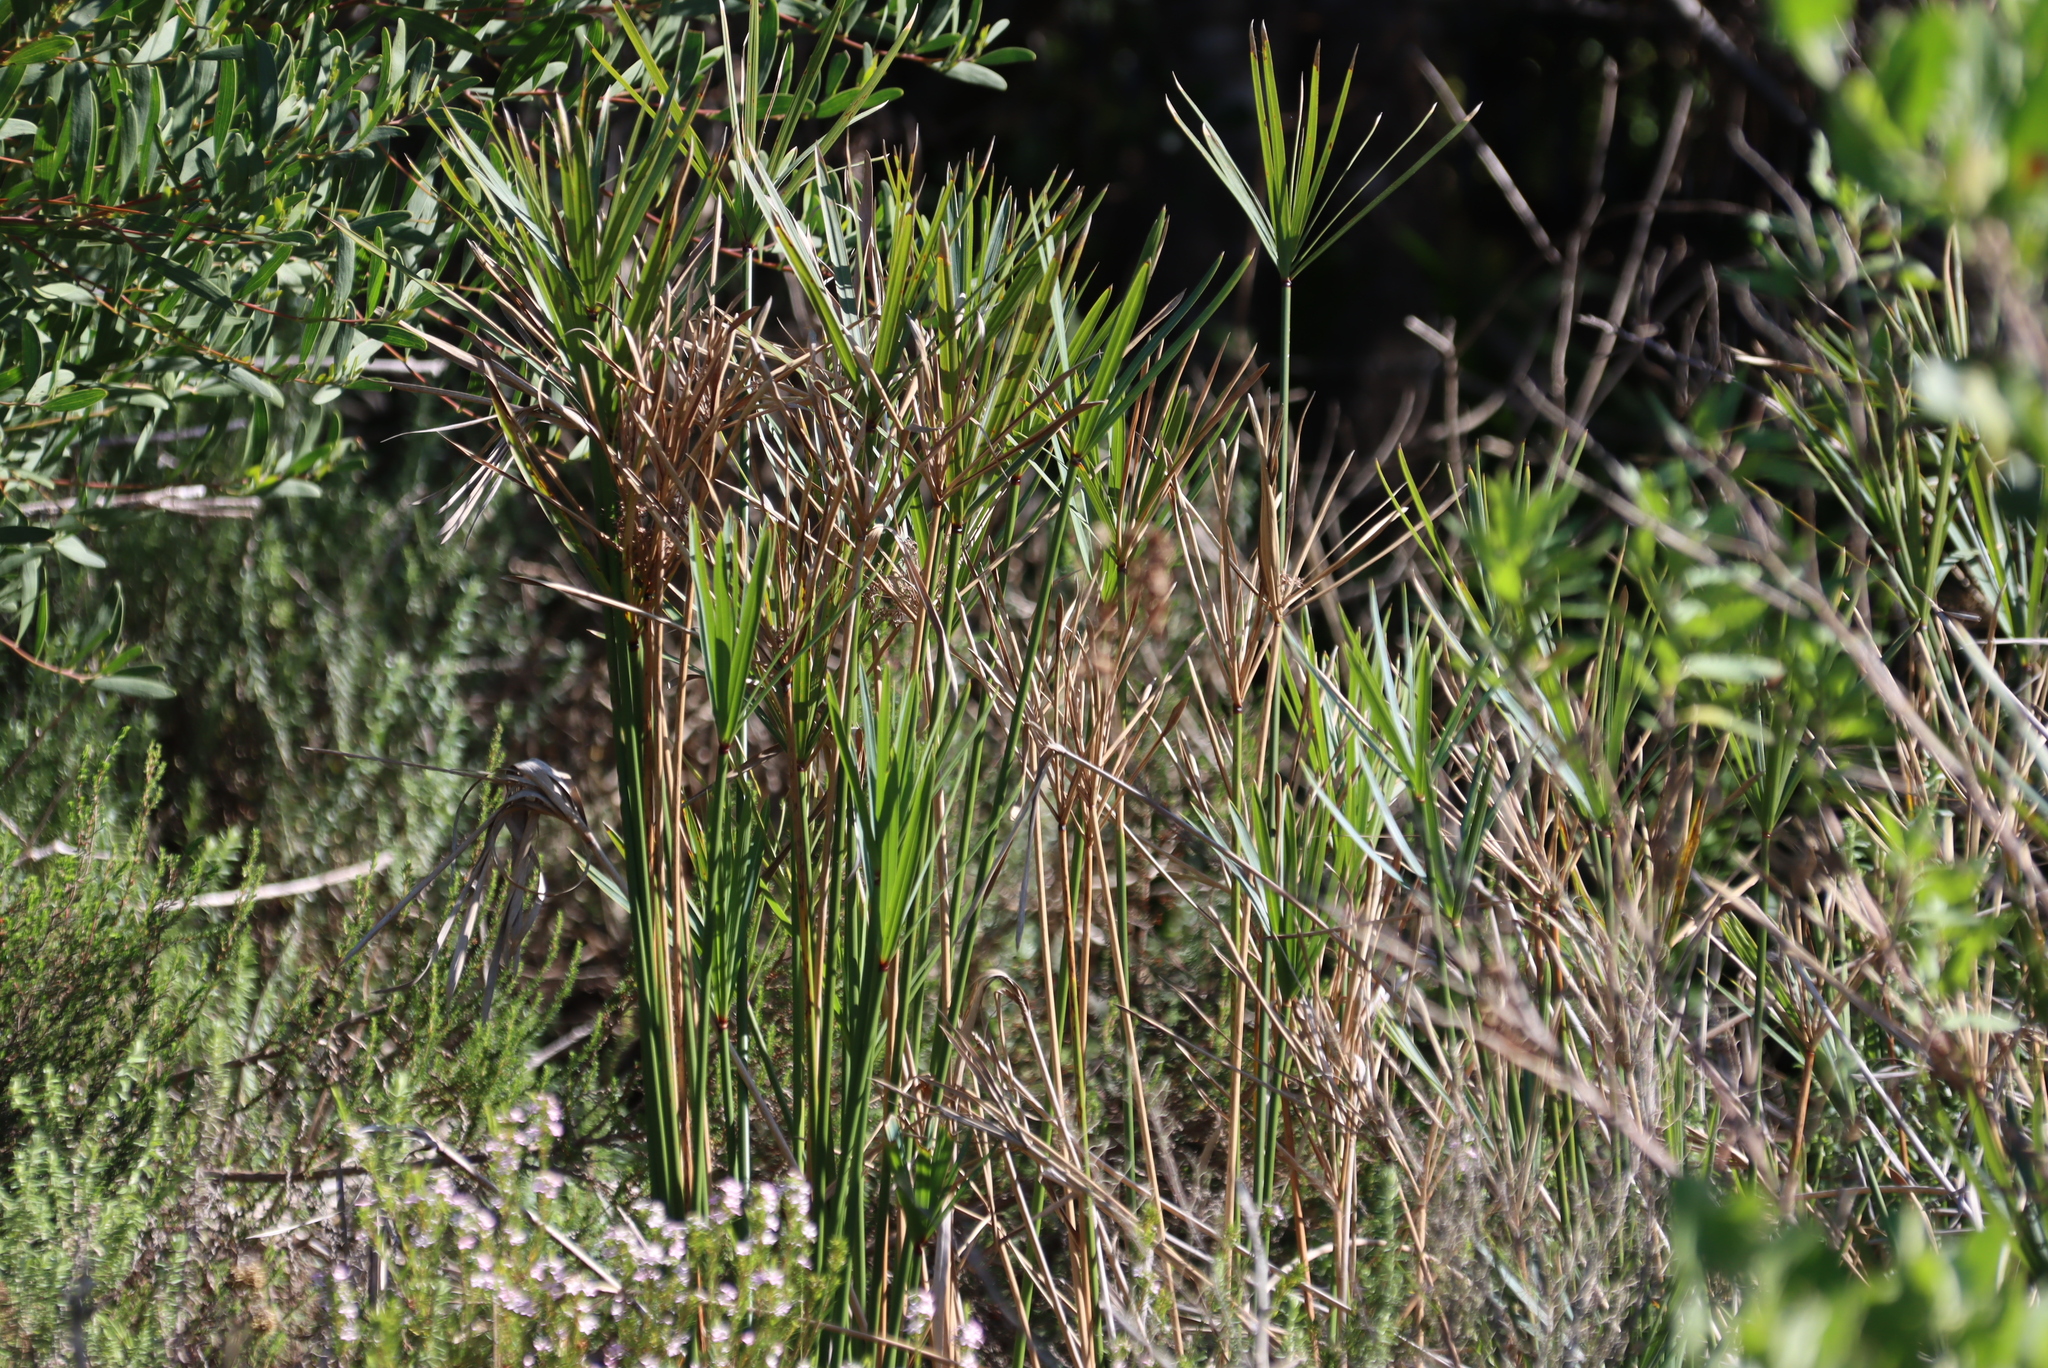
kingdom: Plantae
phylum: Tracheophyta
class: Liliopsida
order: Poales
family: Cyperaceae
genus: Cyperus
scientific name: Cyperus textilis
